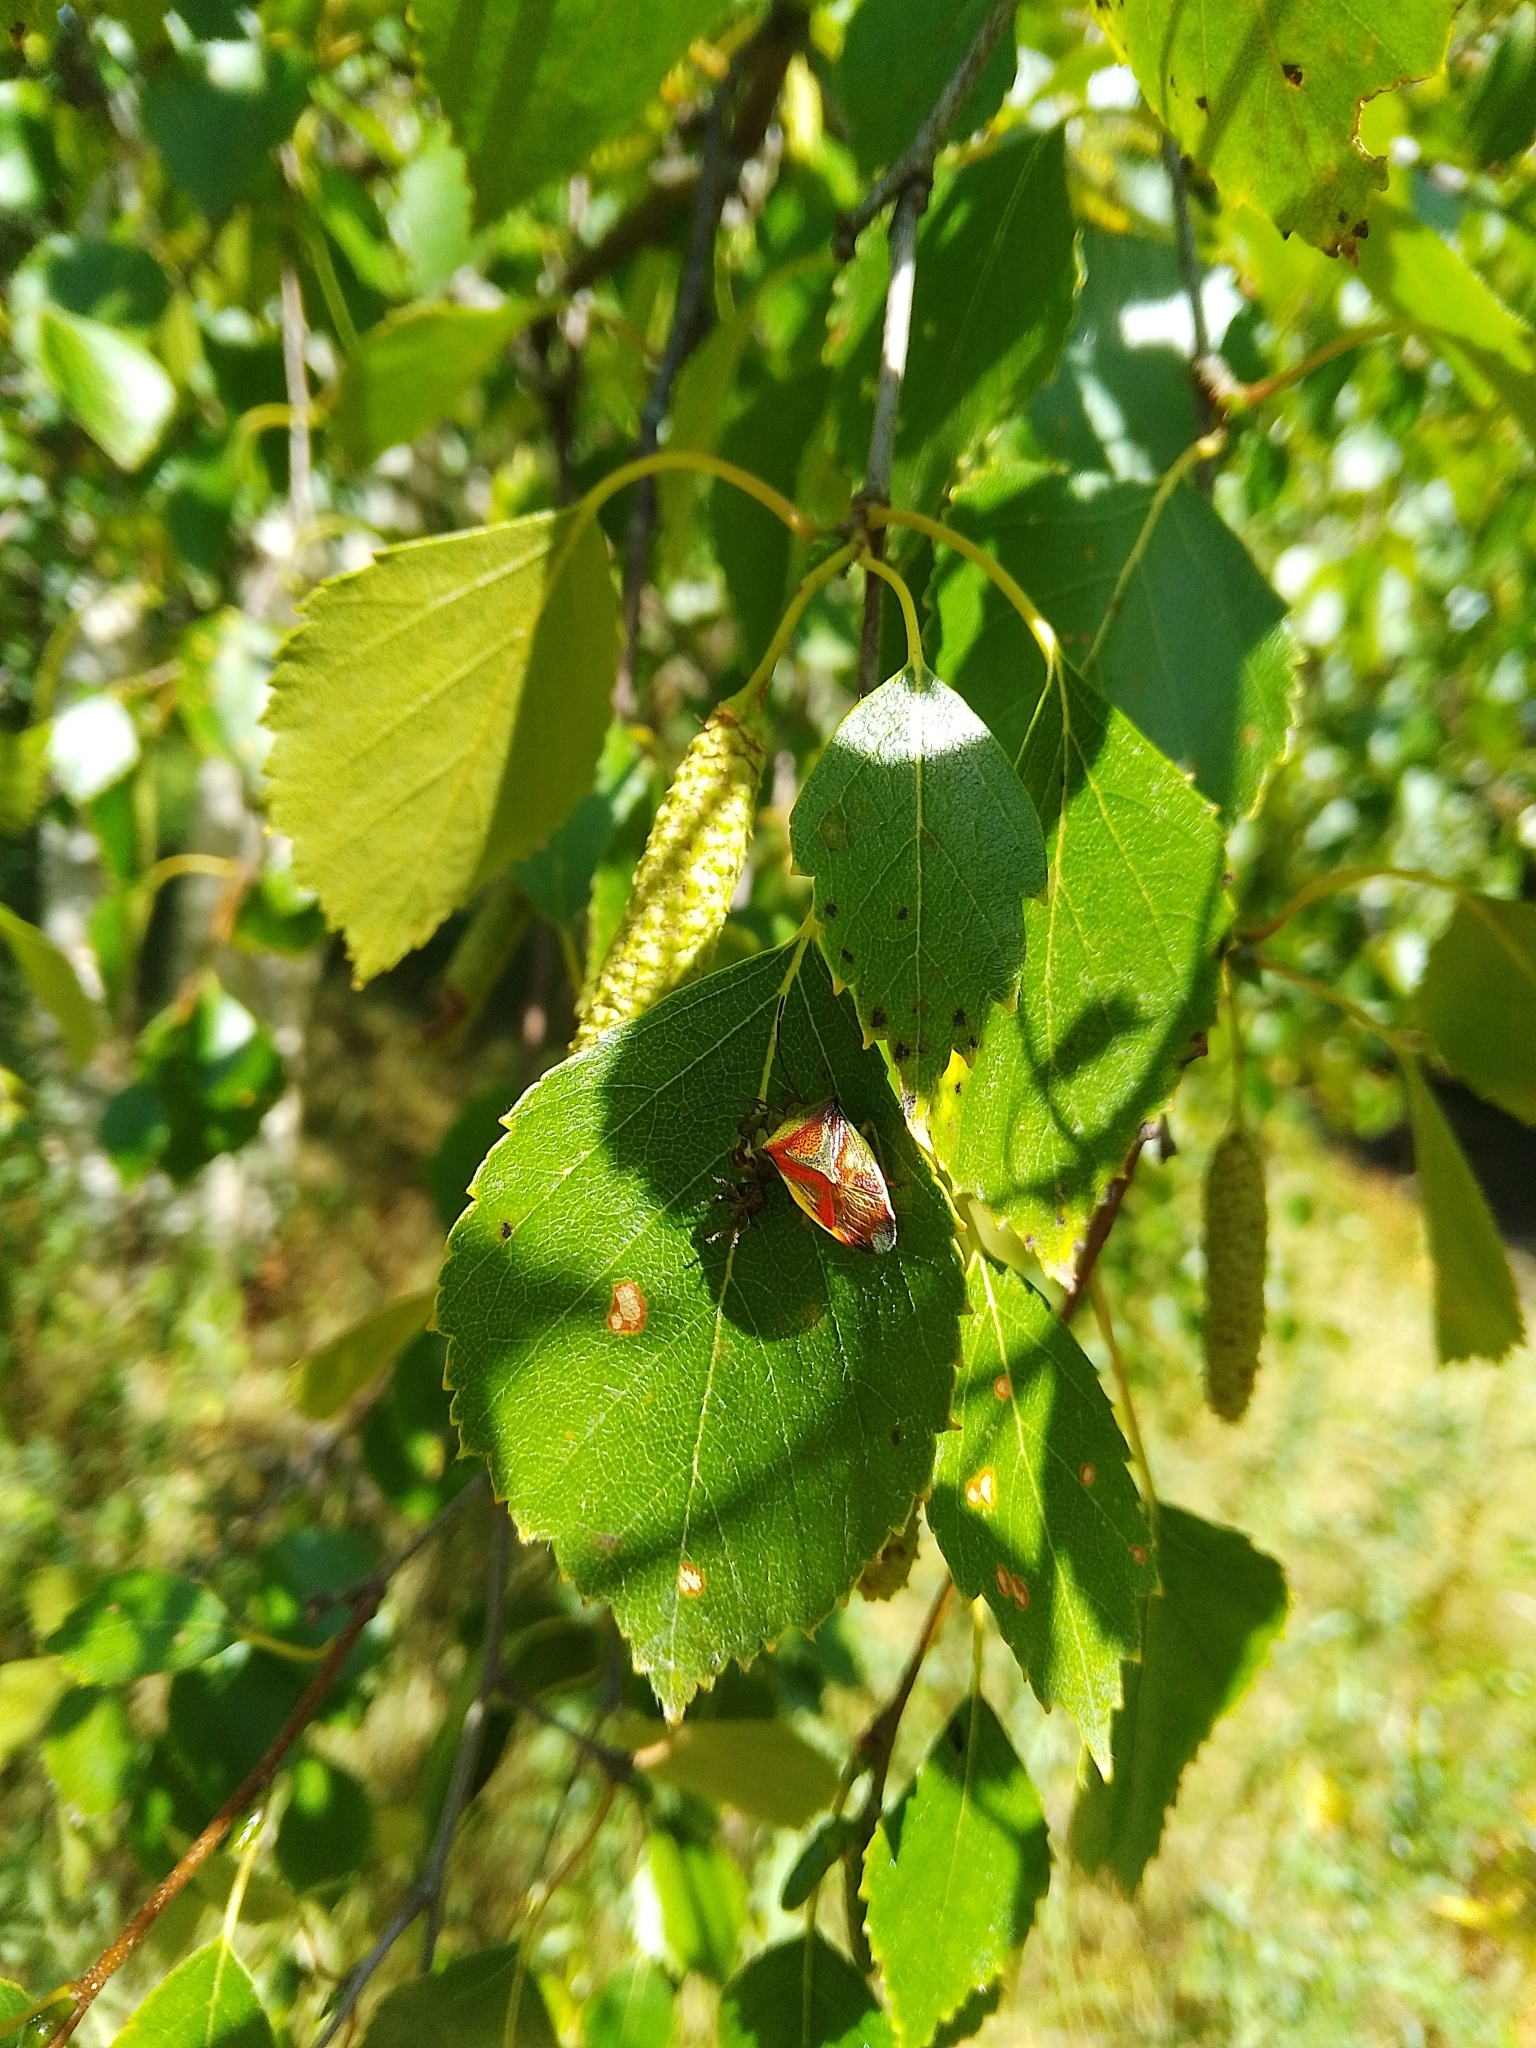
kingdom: Animalia
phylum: Arthropoda
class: Insecta
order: Hemiptera
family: Acanthosomatidae
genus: Elasmostethus
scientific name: Elasmostethus interstinctus
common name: Birch shieldbug
